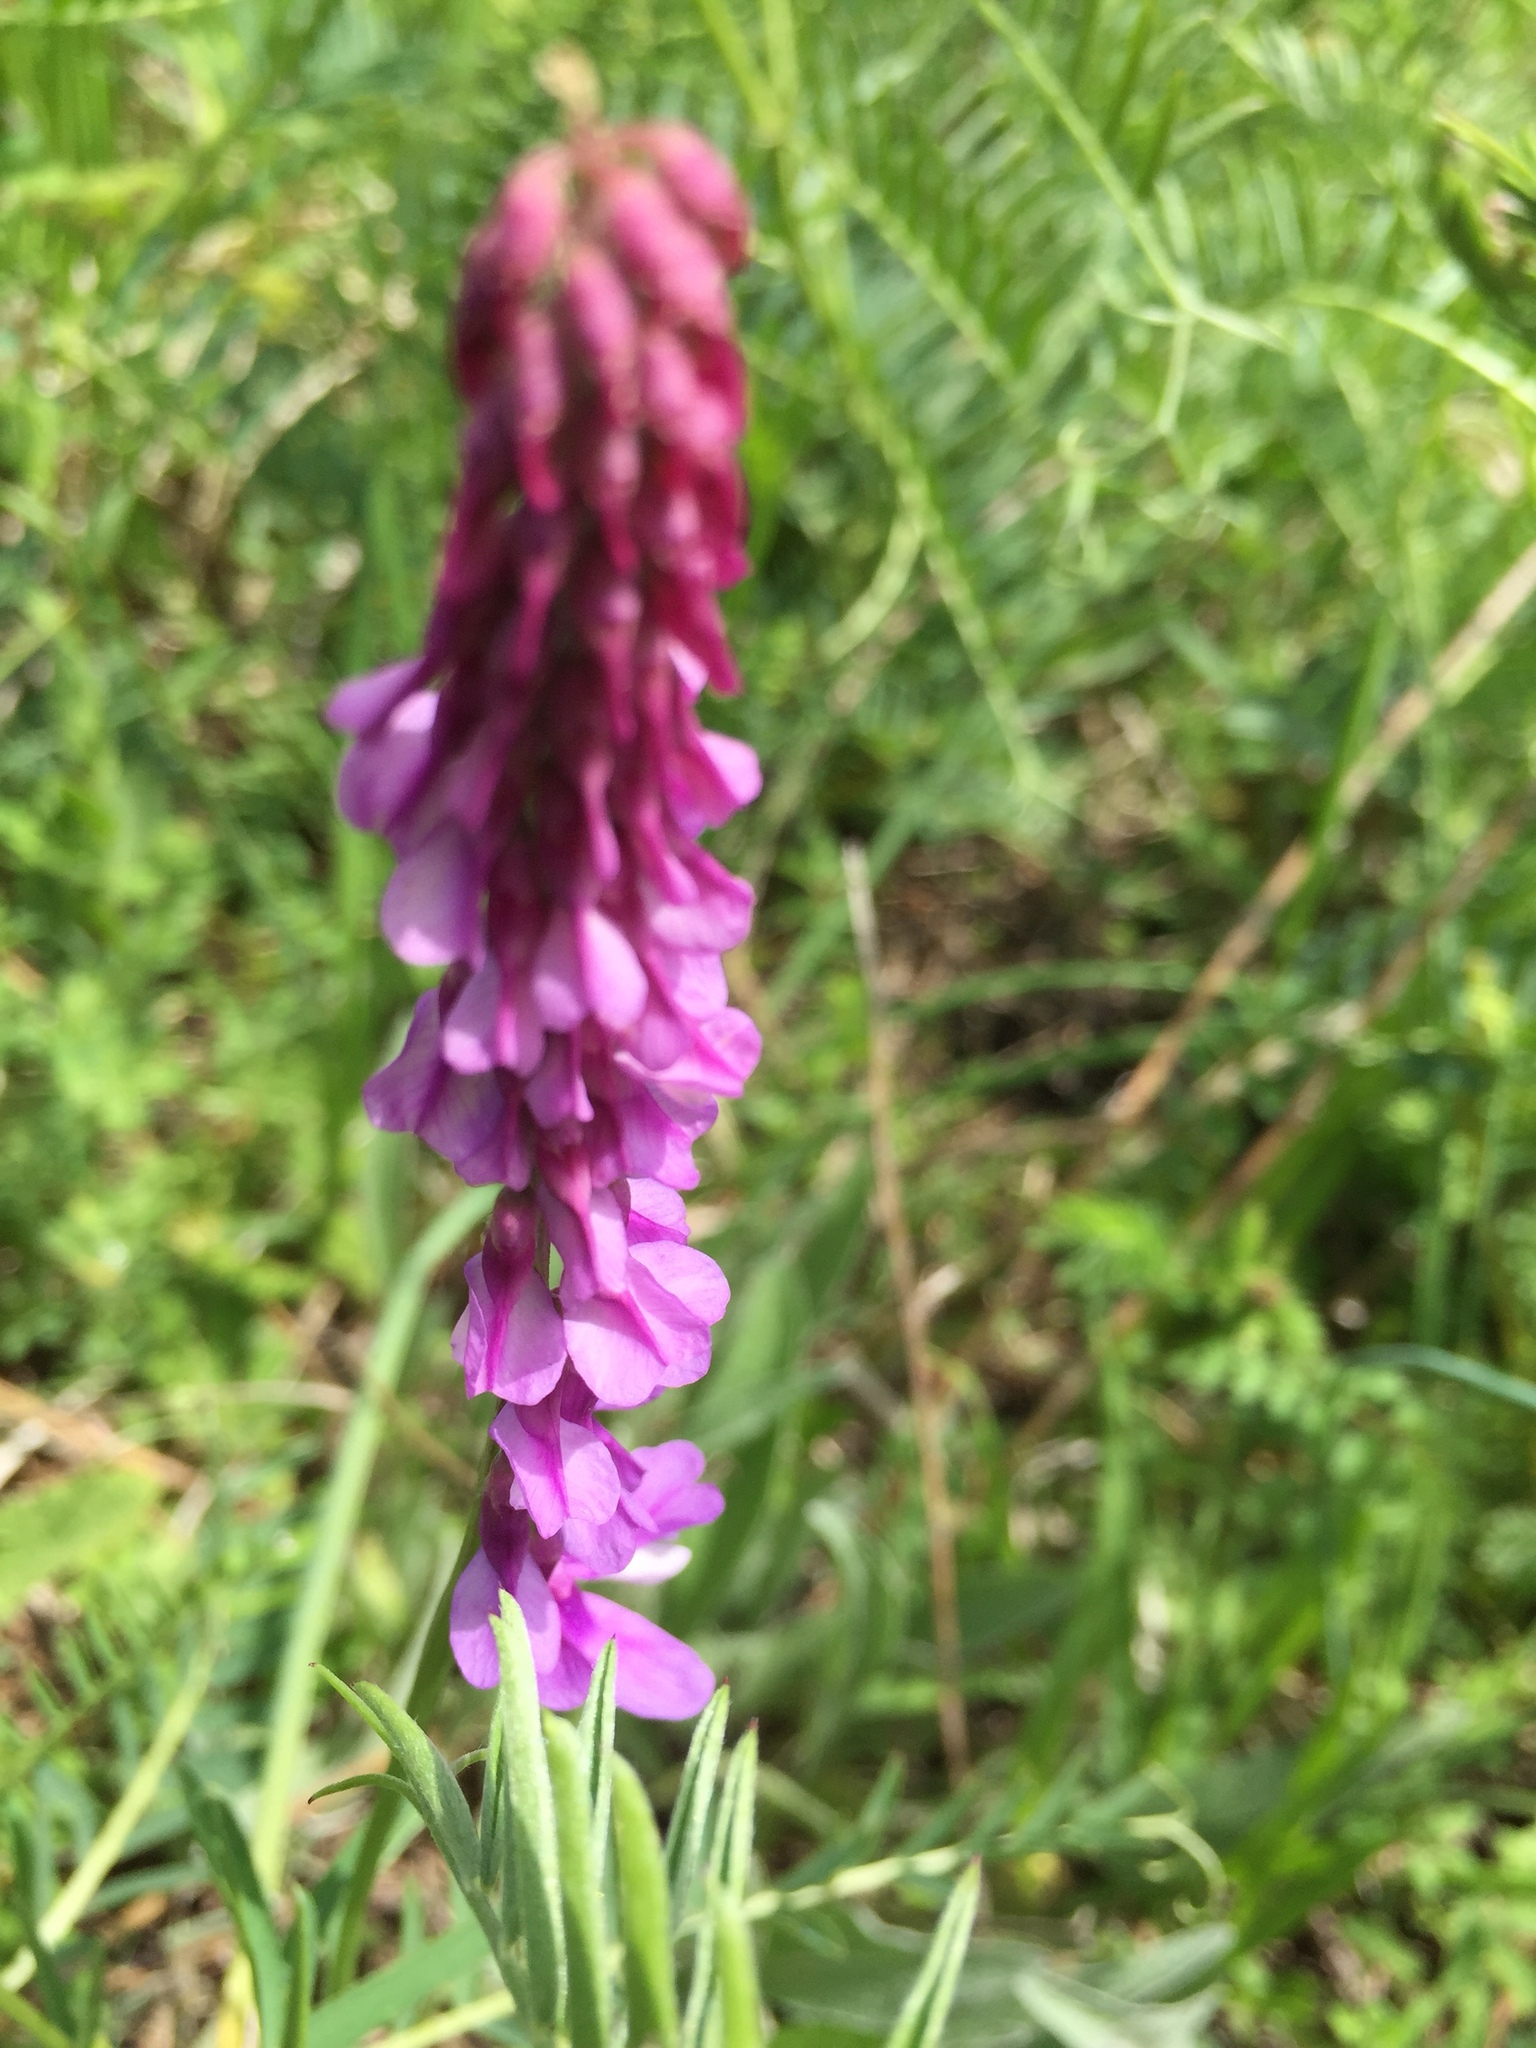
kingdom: Plantae
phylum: Tracheophyta
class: Magnoliopsida
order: Fabales
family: Fabaceae
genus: Vicia
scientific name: Vicia cracca
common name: Bird vetch
